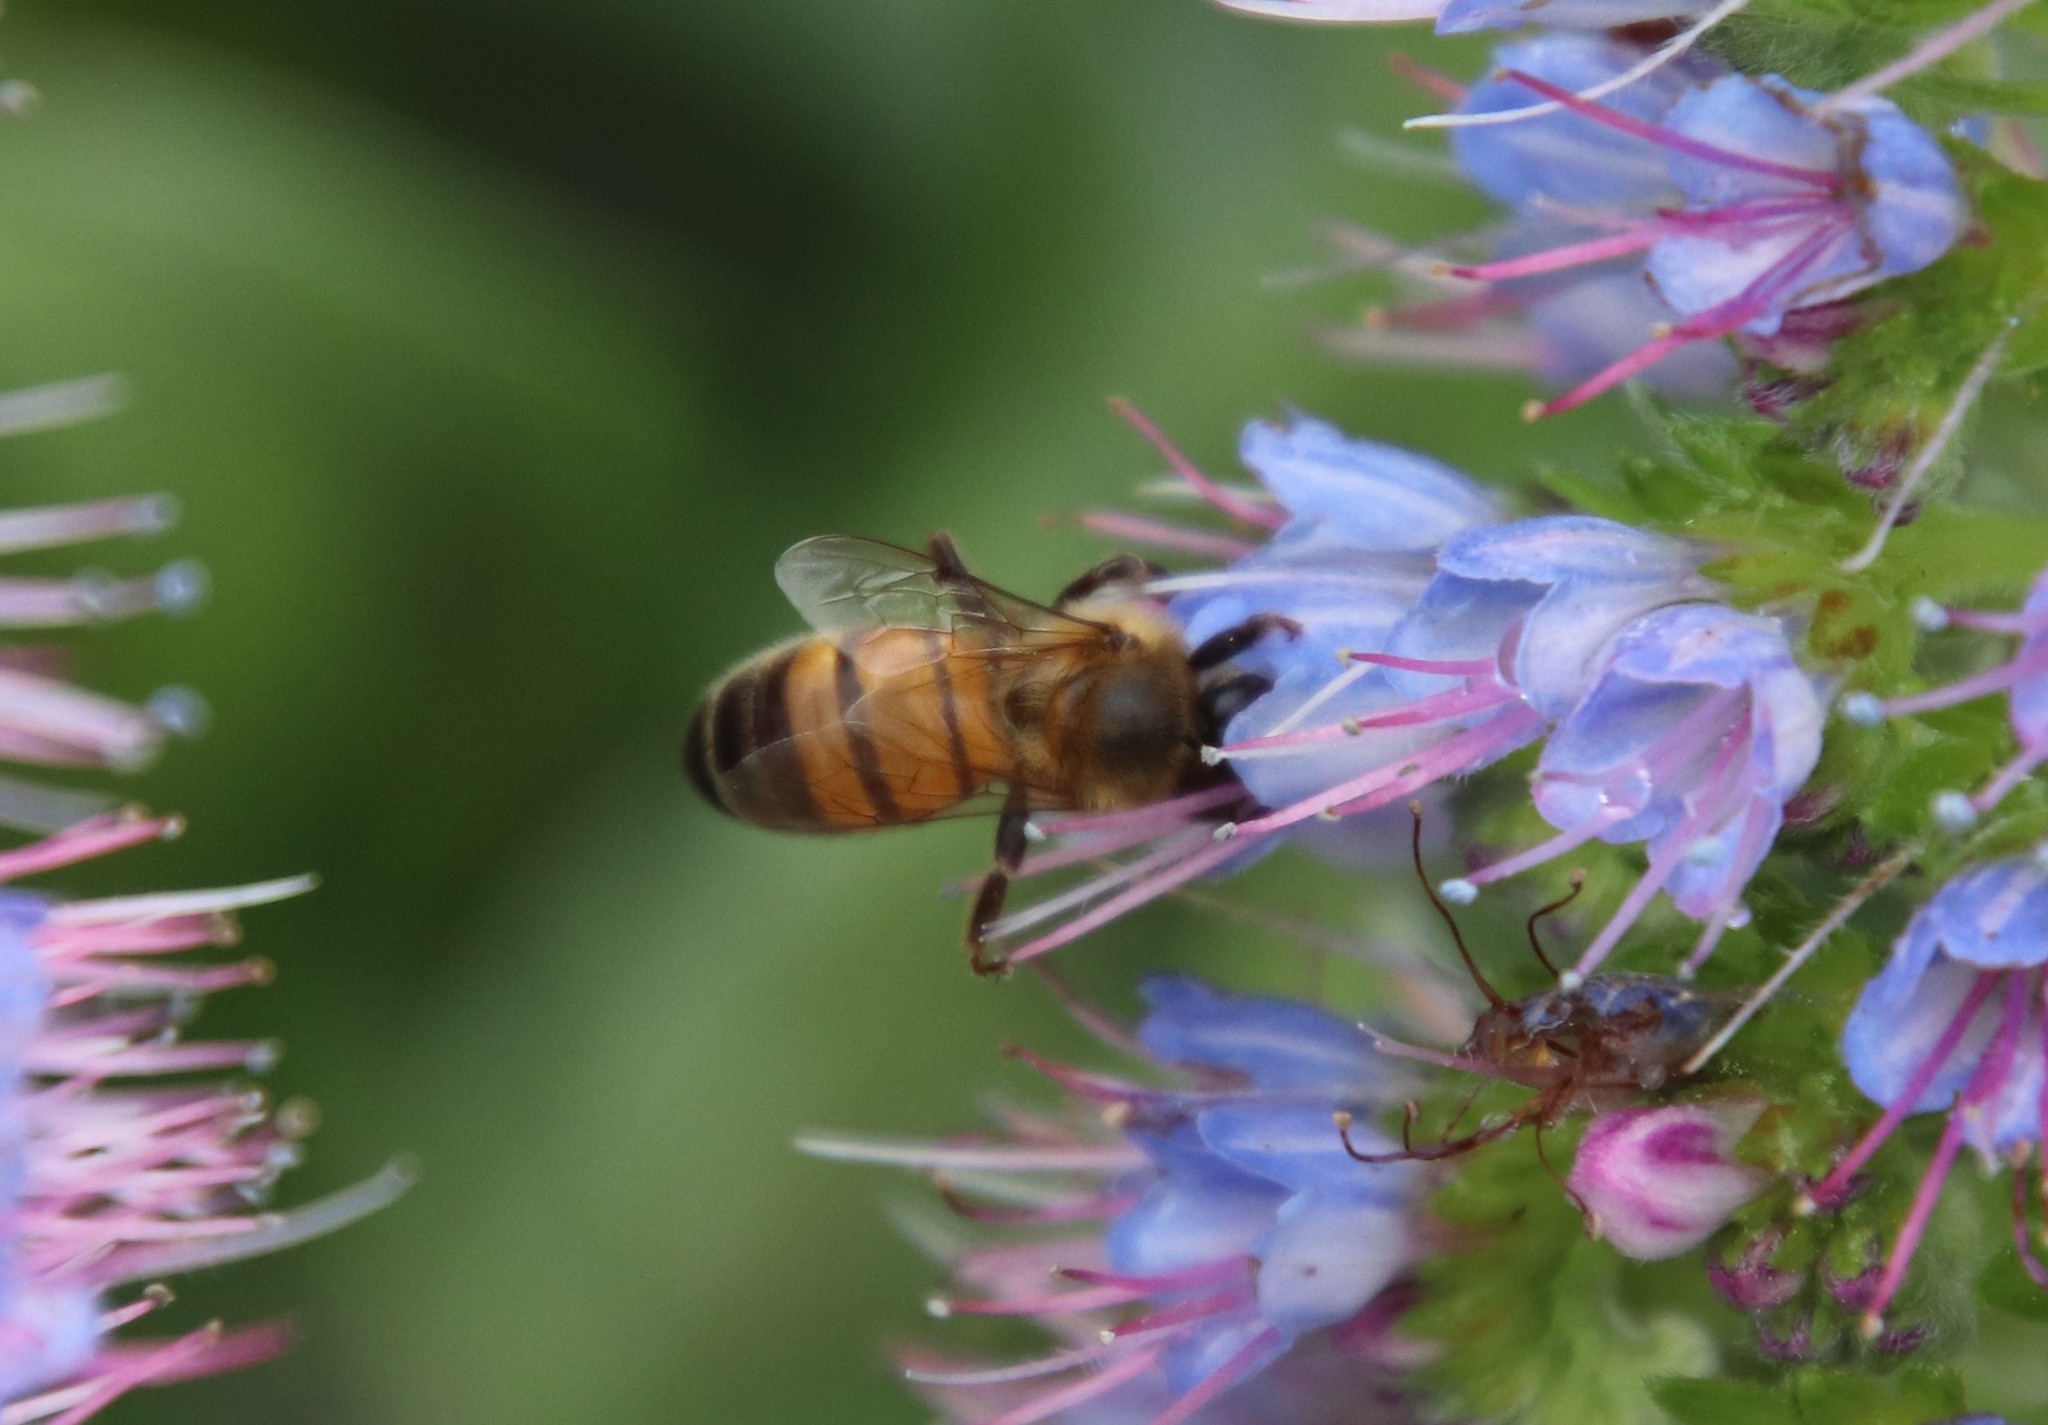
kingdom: Animalia
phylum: Arthropoda
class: Insecta
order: Hymenoptera
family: Apidae
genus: Apis
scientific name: Apis mellifera
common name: Honey bee
